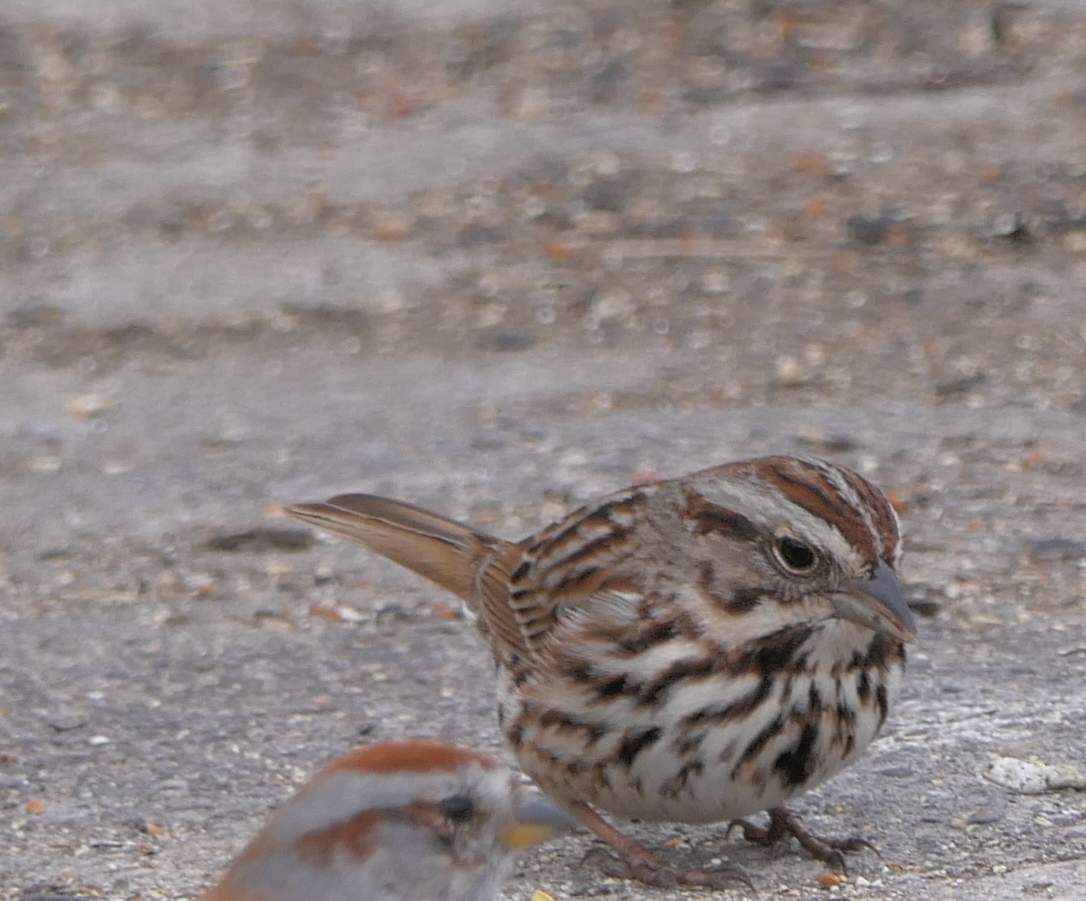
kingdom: Animalia
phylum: Chordata
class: Aves
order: Passeriformes
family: Passerellidae
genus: Melospiza
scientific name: Melospiza melodia
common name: Song sparrow
